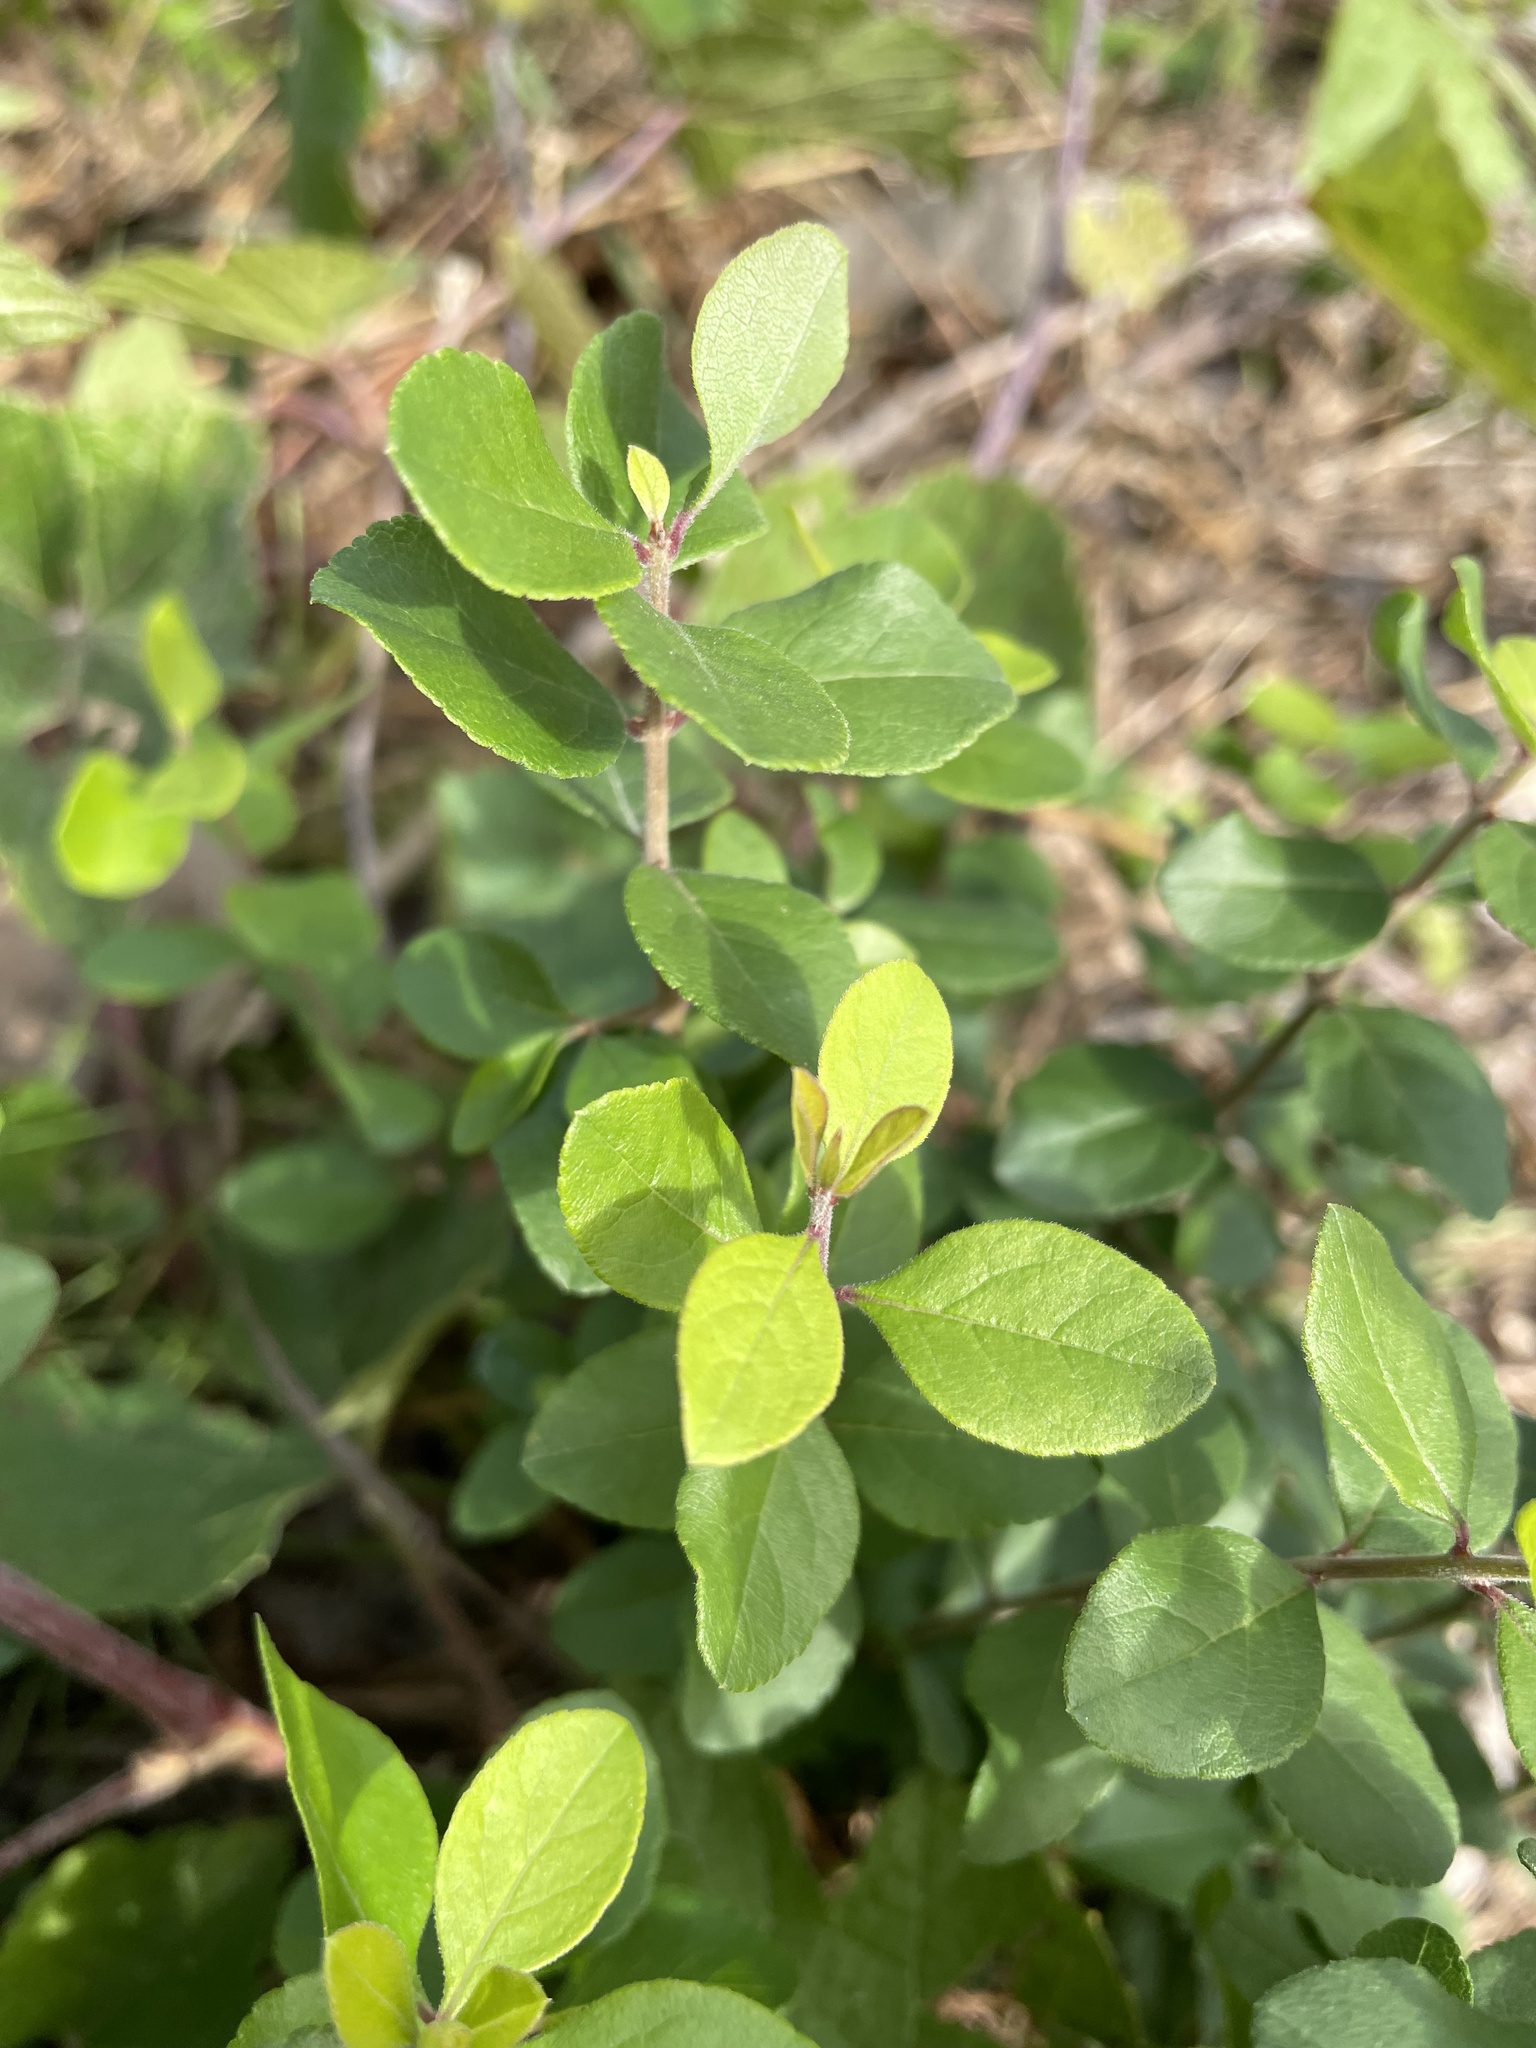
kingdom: Plantae
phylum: Tracheophyta
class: Magnoliopsida
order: Lamiales
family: Oleaceae
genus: Forestiera
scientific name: Forestiera pubescens
